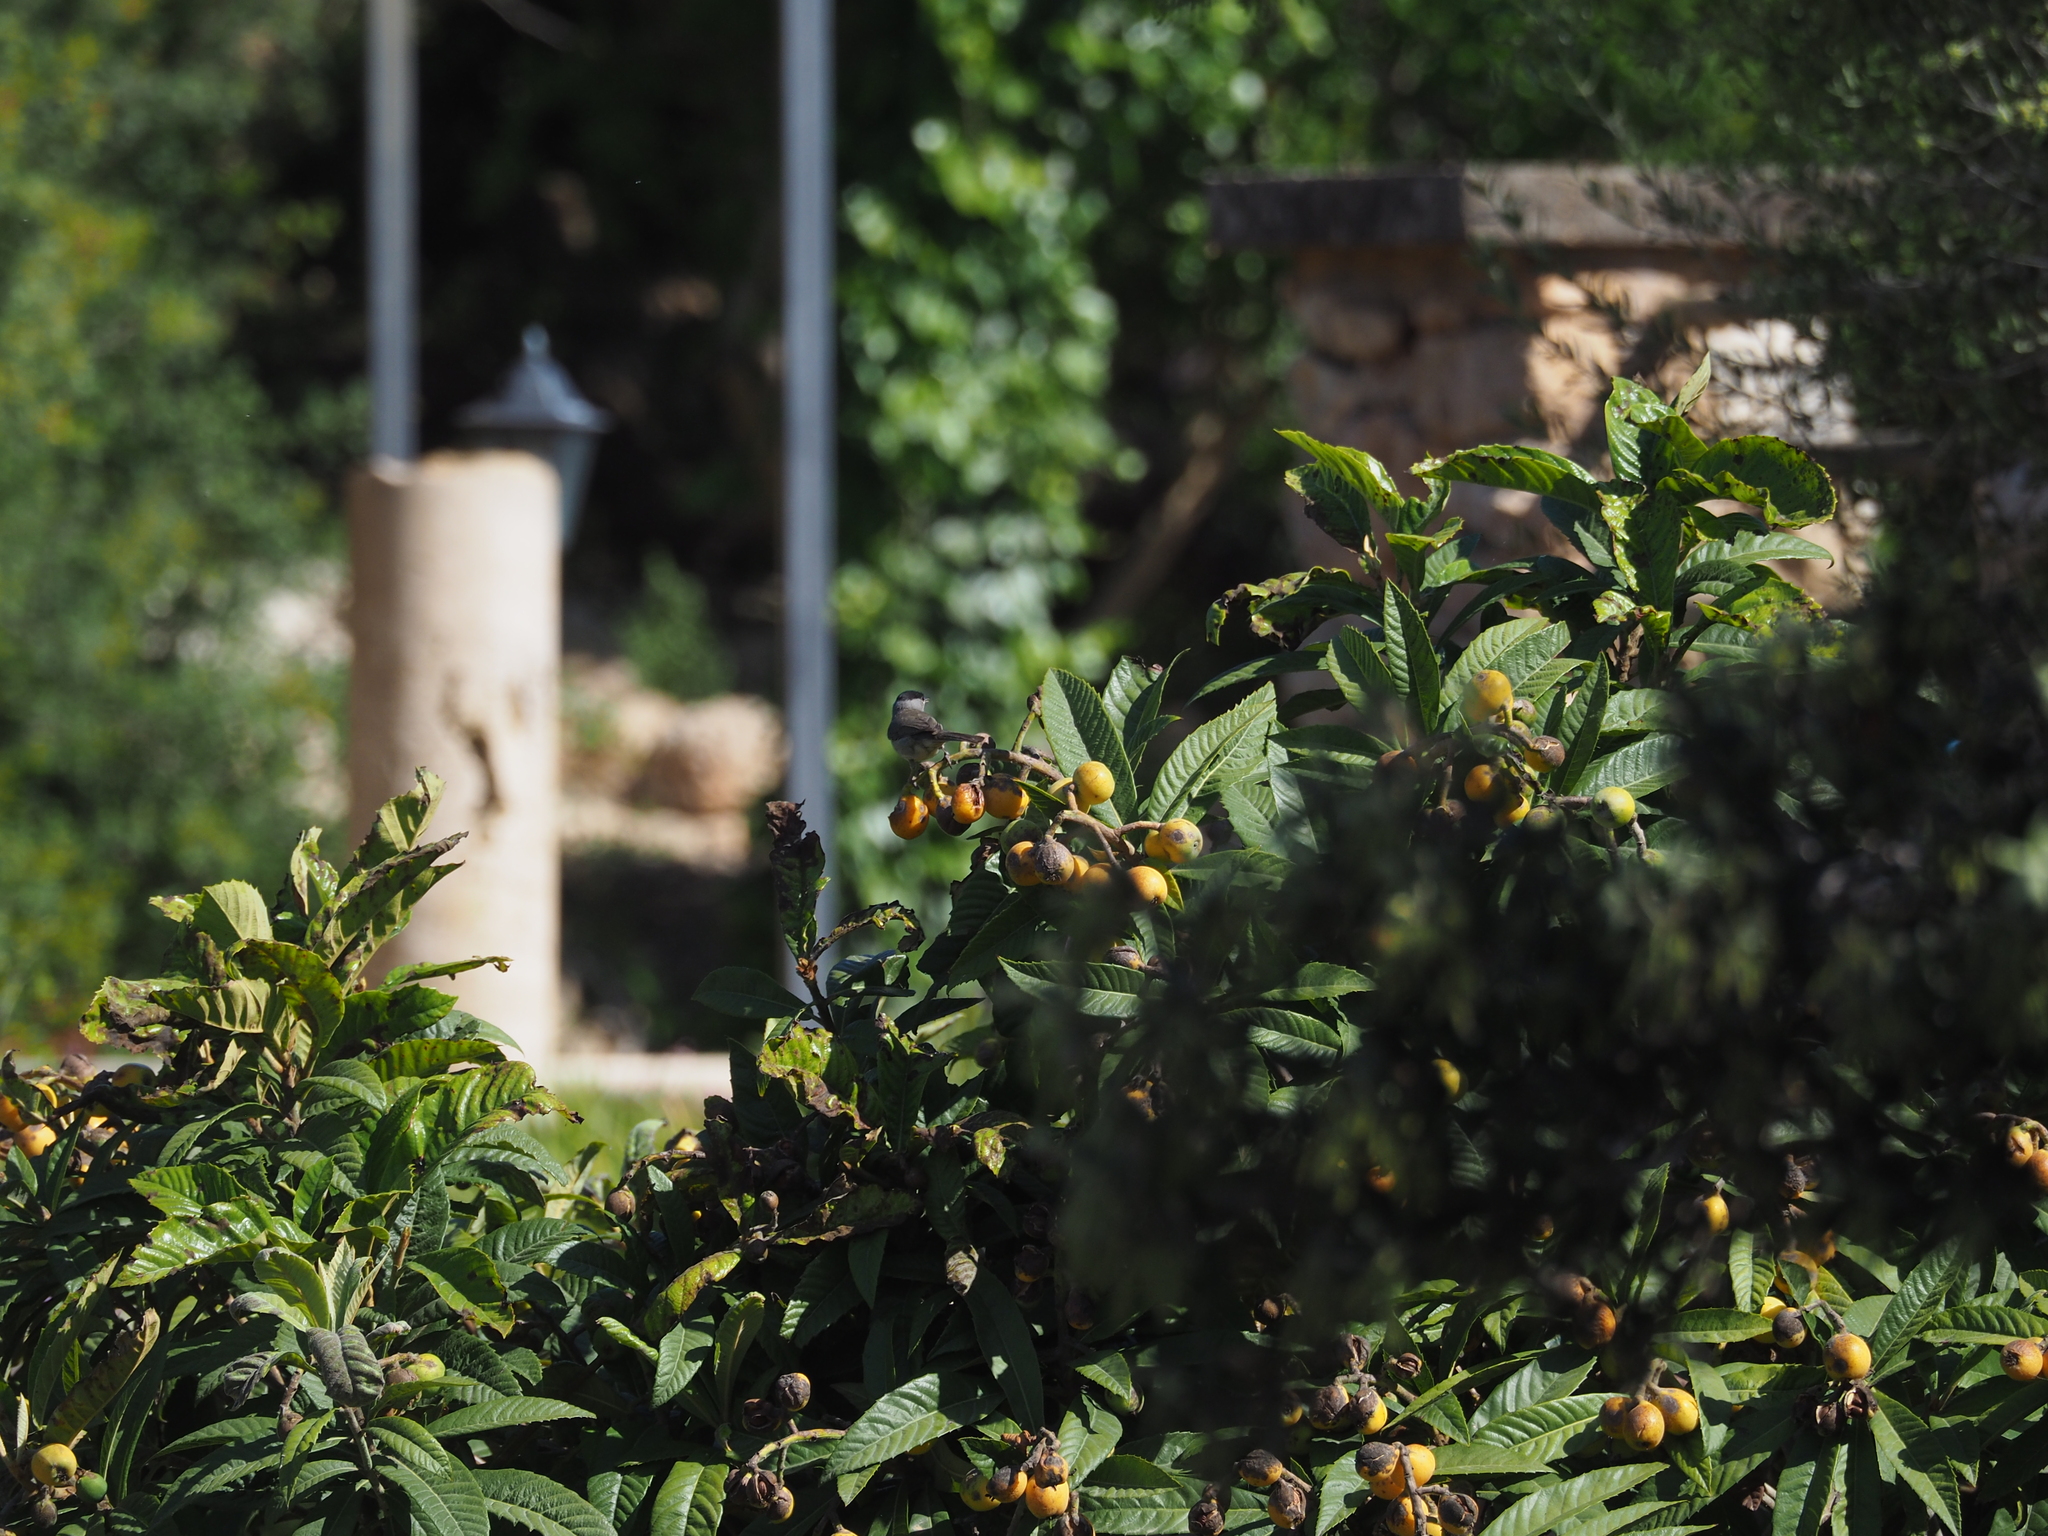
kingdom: Animalia
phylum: Chordata
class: Aves
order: Passeriformes
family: Sylviidae
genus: Sylvia
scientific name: Sylvia atricapilla
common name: Eurasian blackcap
